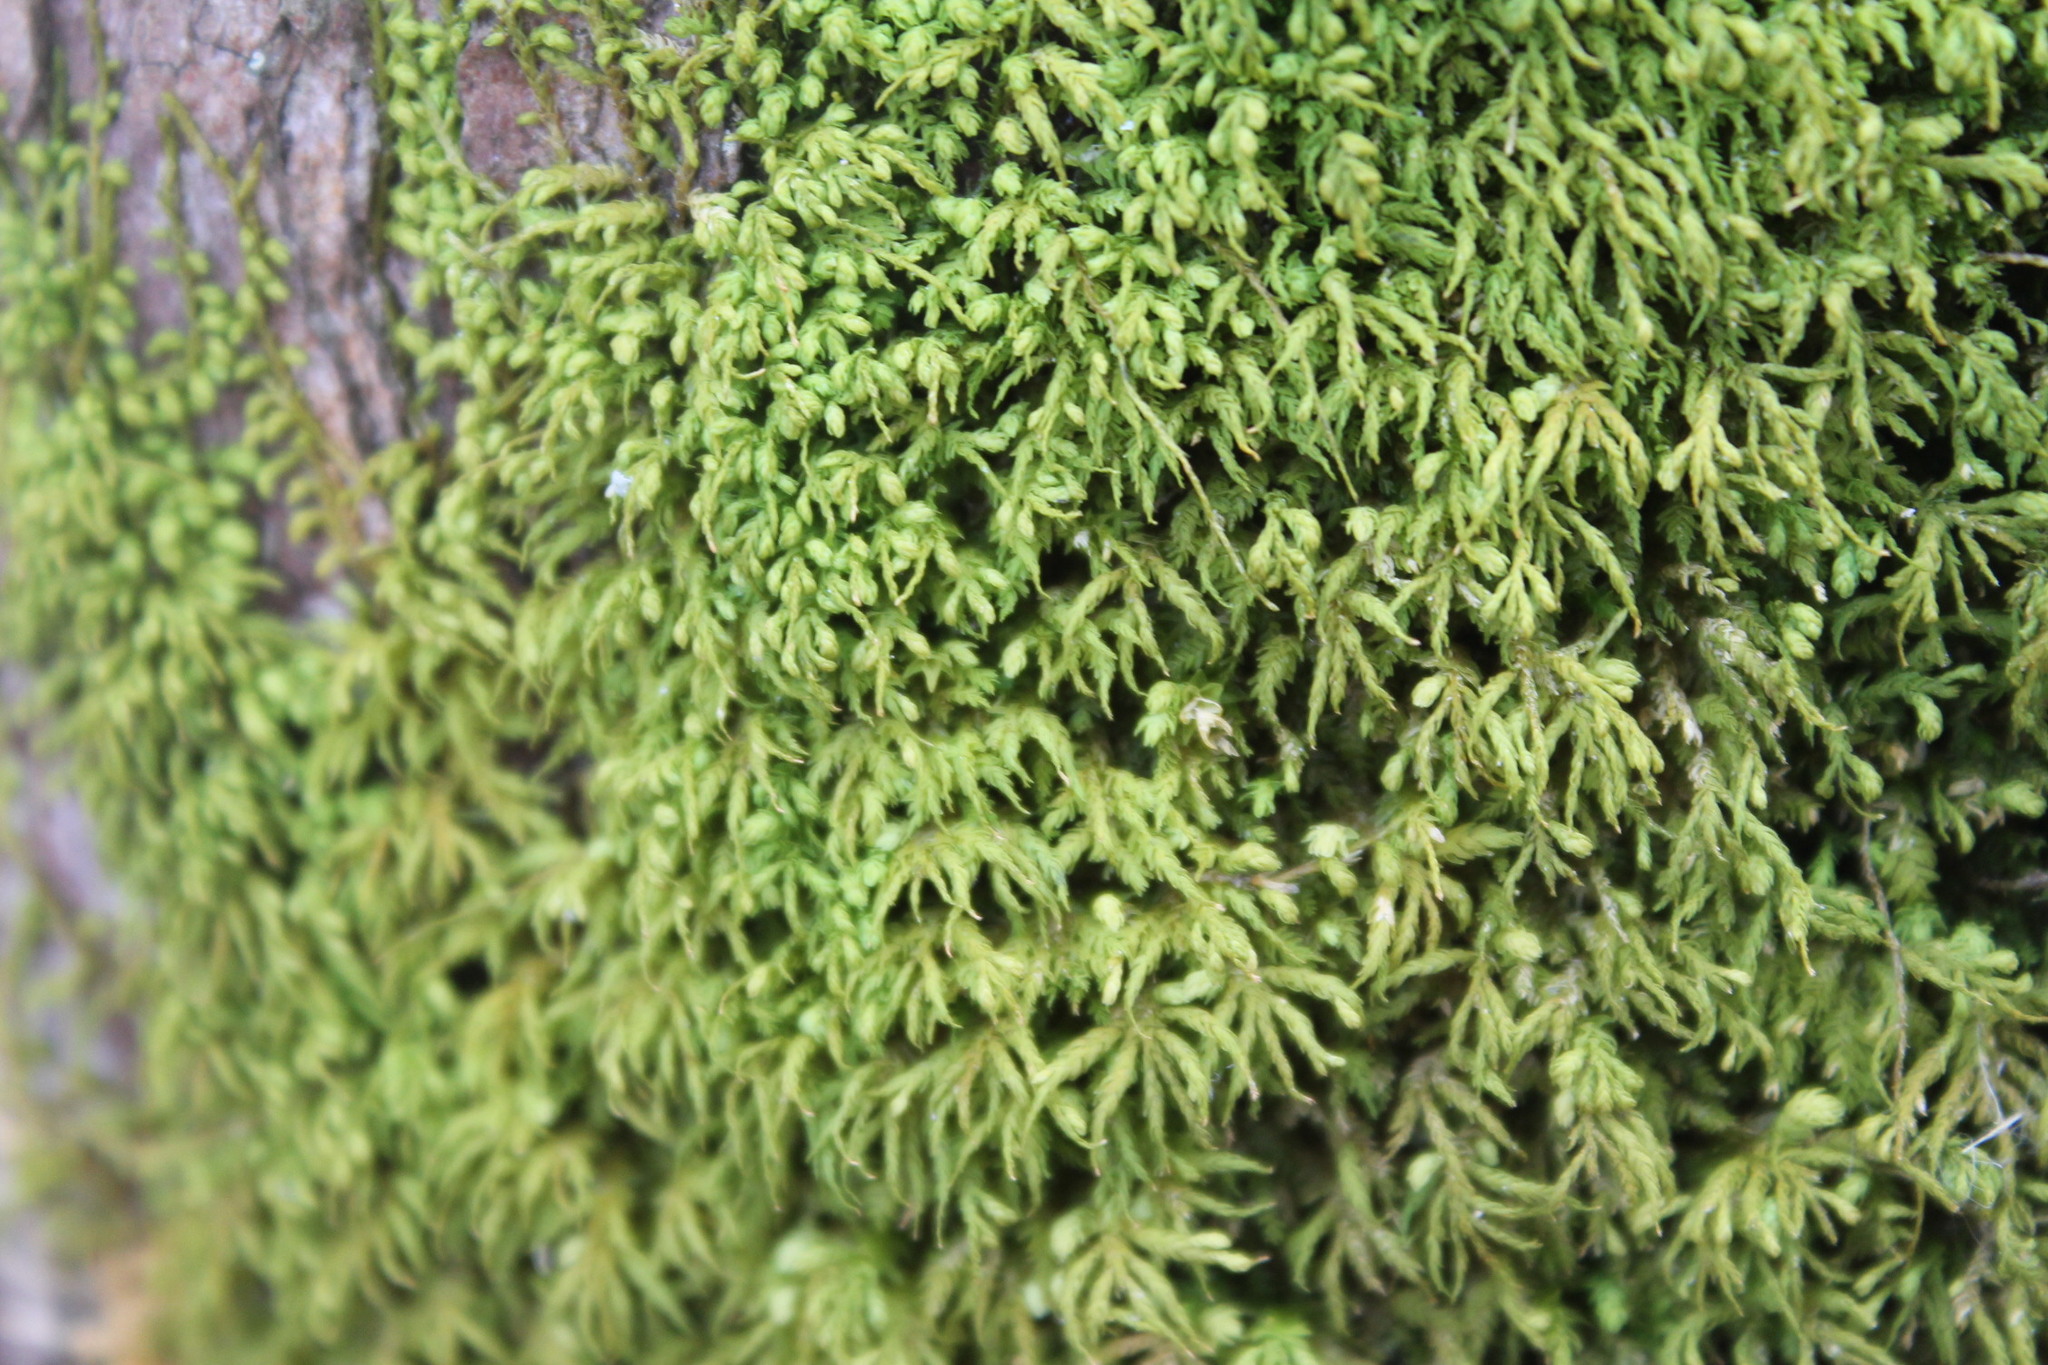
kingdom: Plantae
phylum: Bryophyta
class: Bryopsida
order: Hypnales
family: Neckeraceae
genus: Pseudanomodon
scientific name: Pseudanomodon attenuatus
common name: Tree-skirt moss
